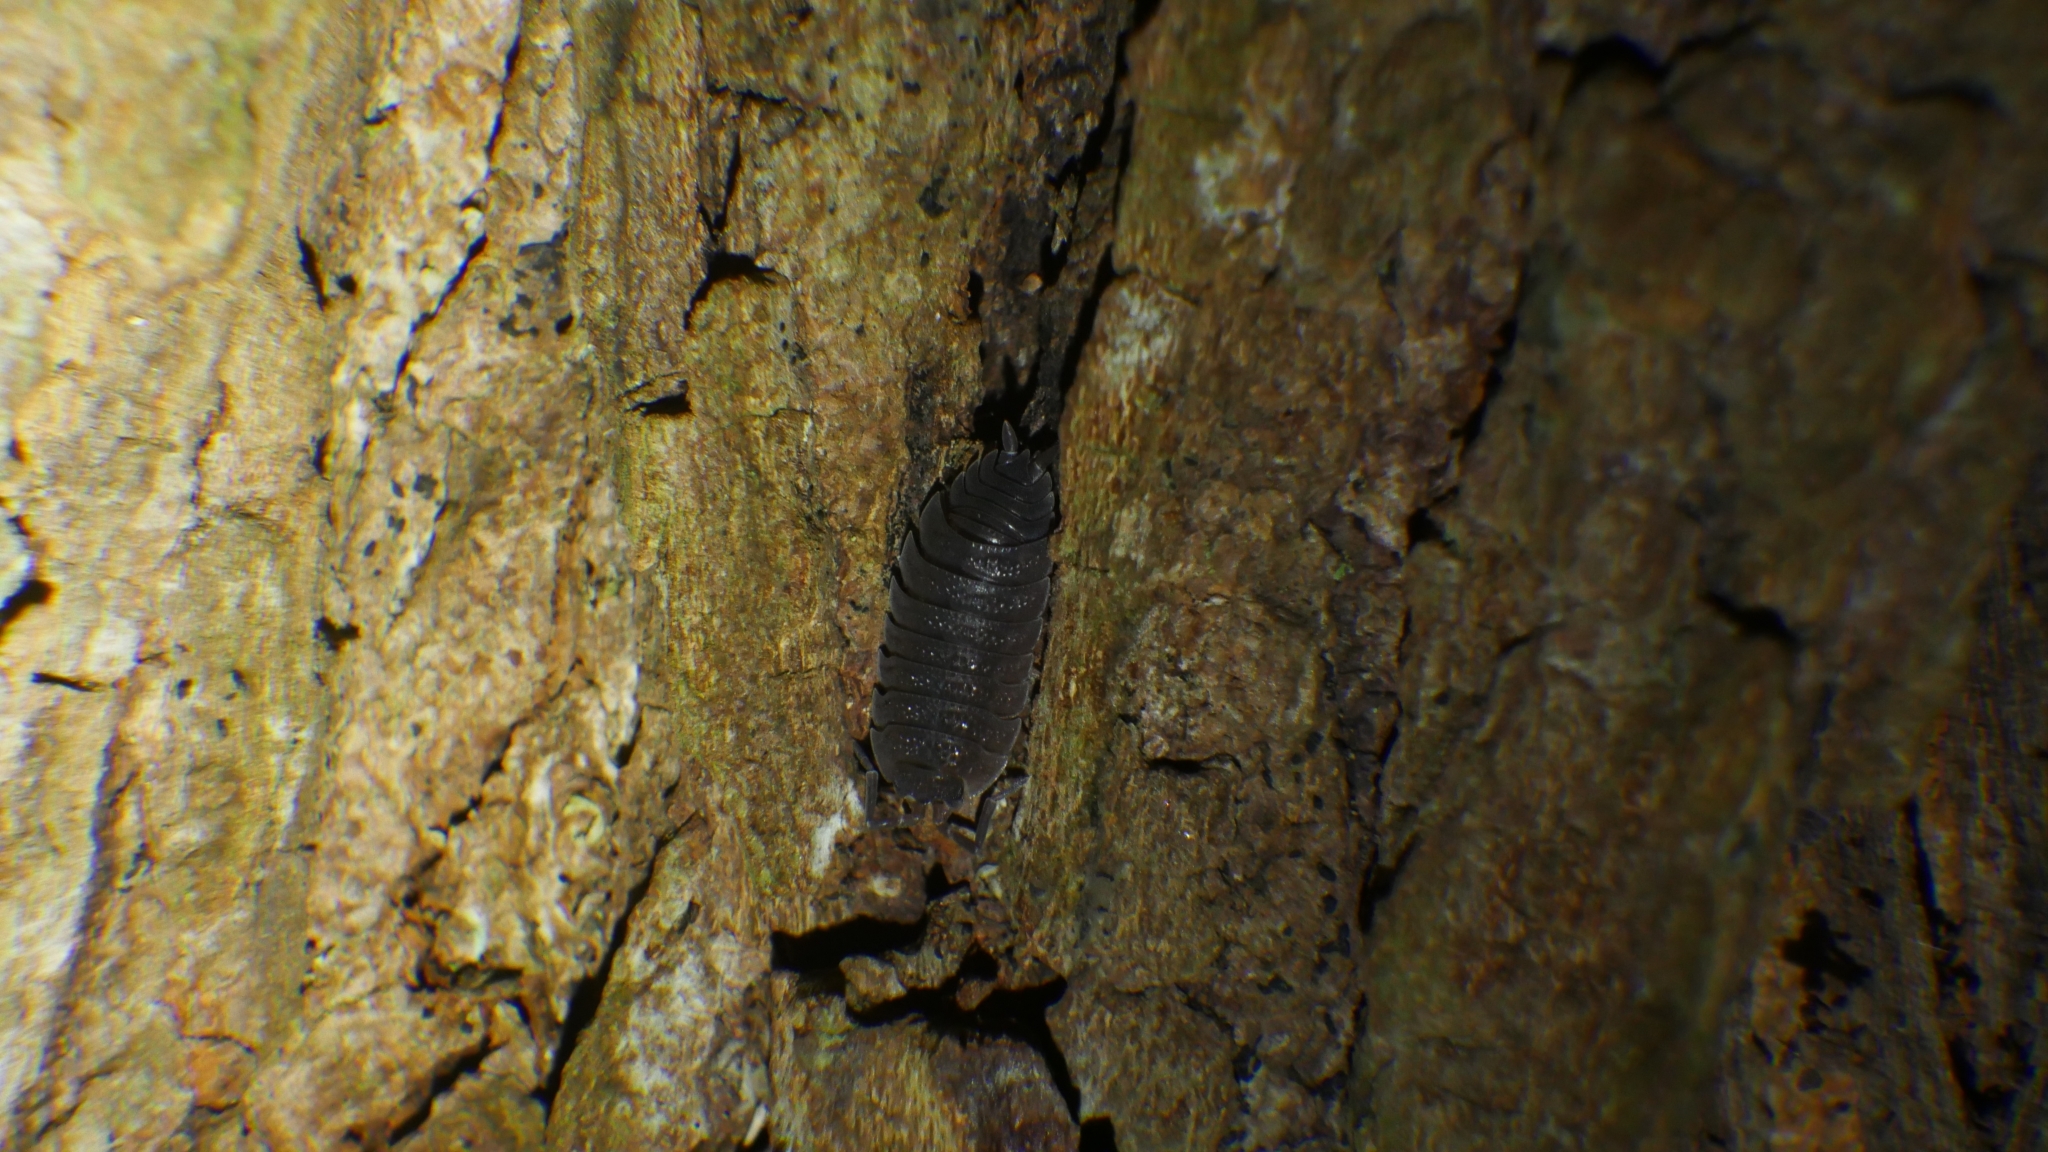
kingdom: Animalia
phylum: Arthropoda
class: Malacostraca
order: Isopoda
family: Porcellionidae
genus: Porcellio
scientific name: Porcellio scaber
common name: Common rough woodlouse
